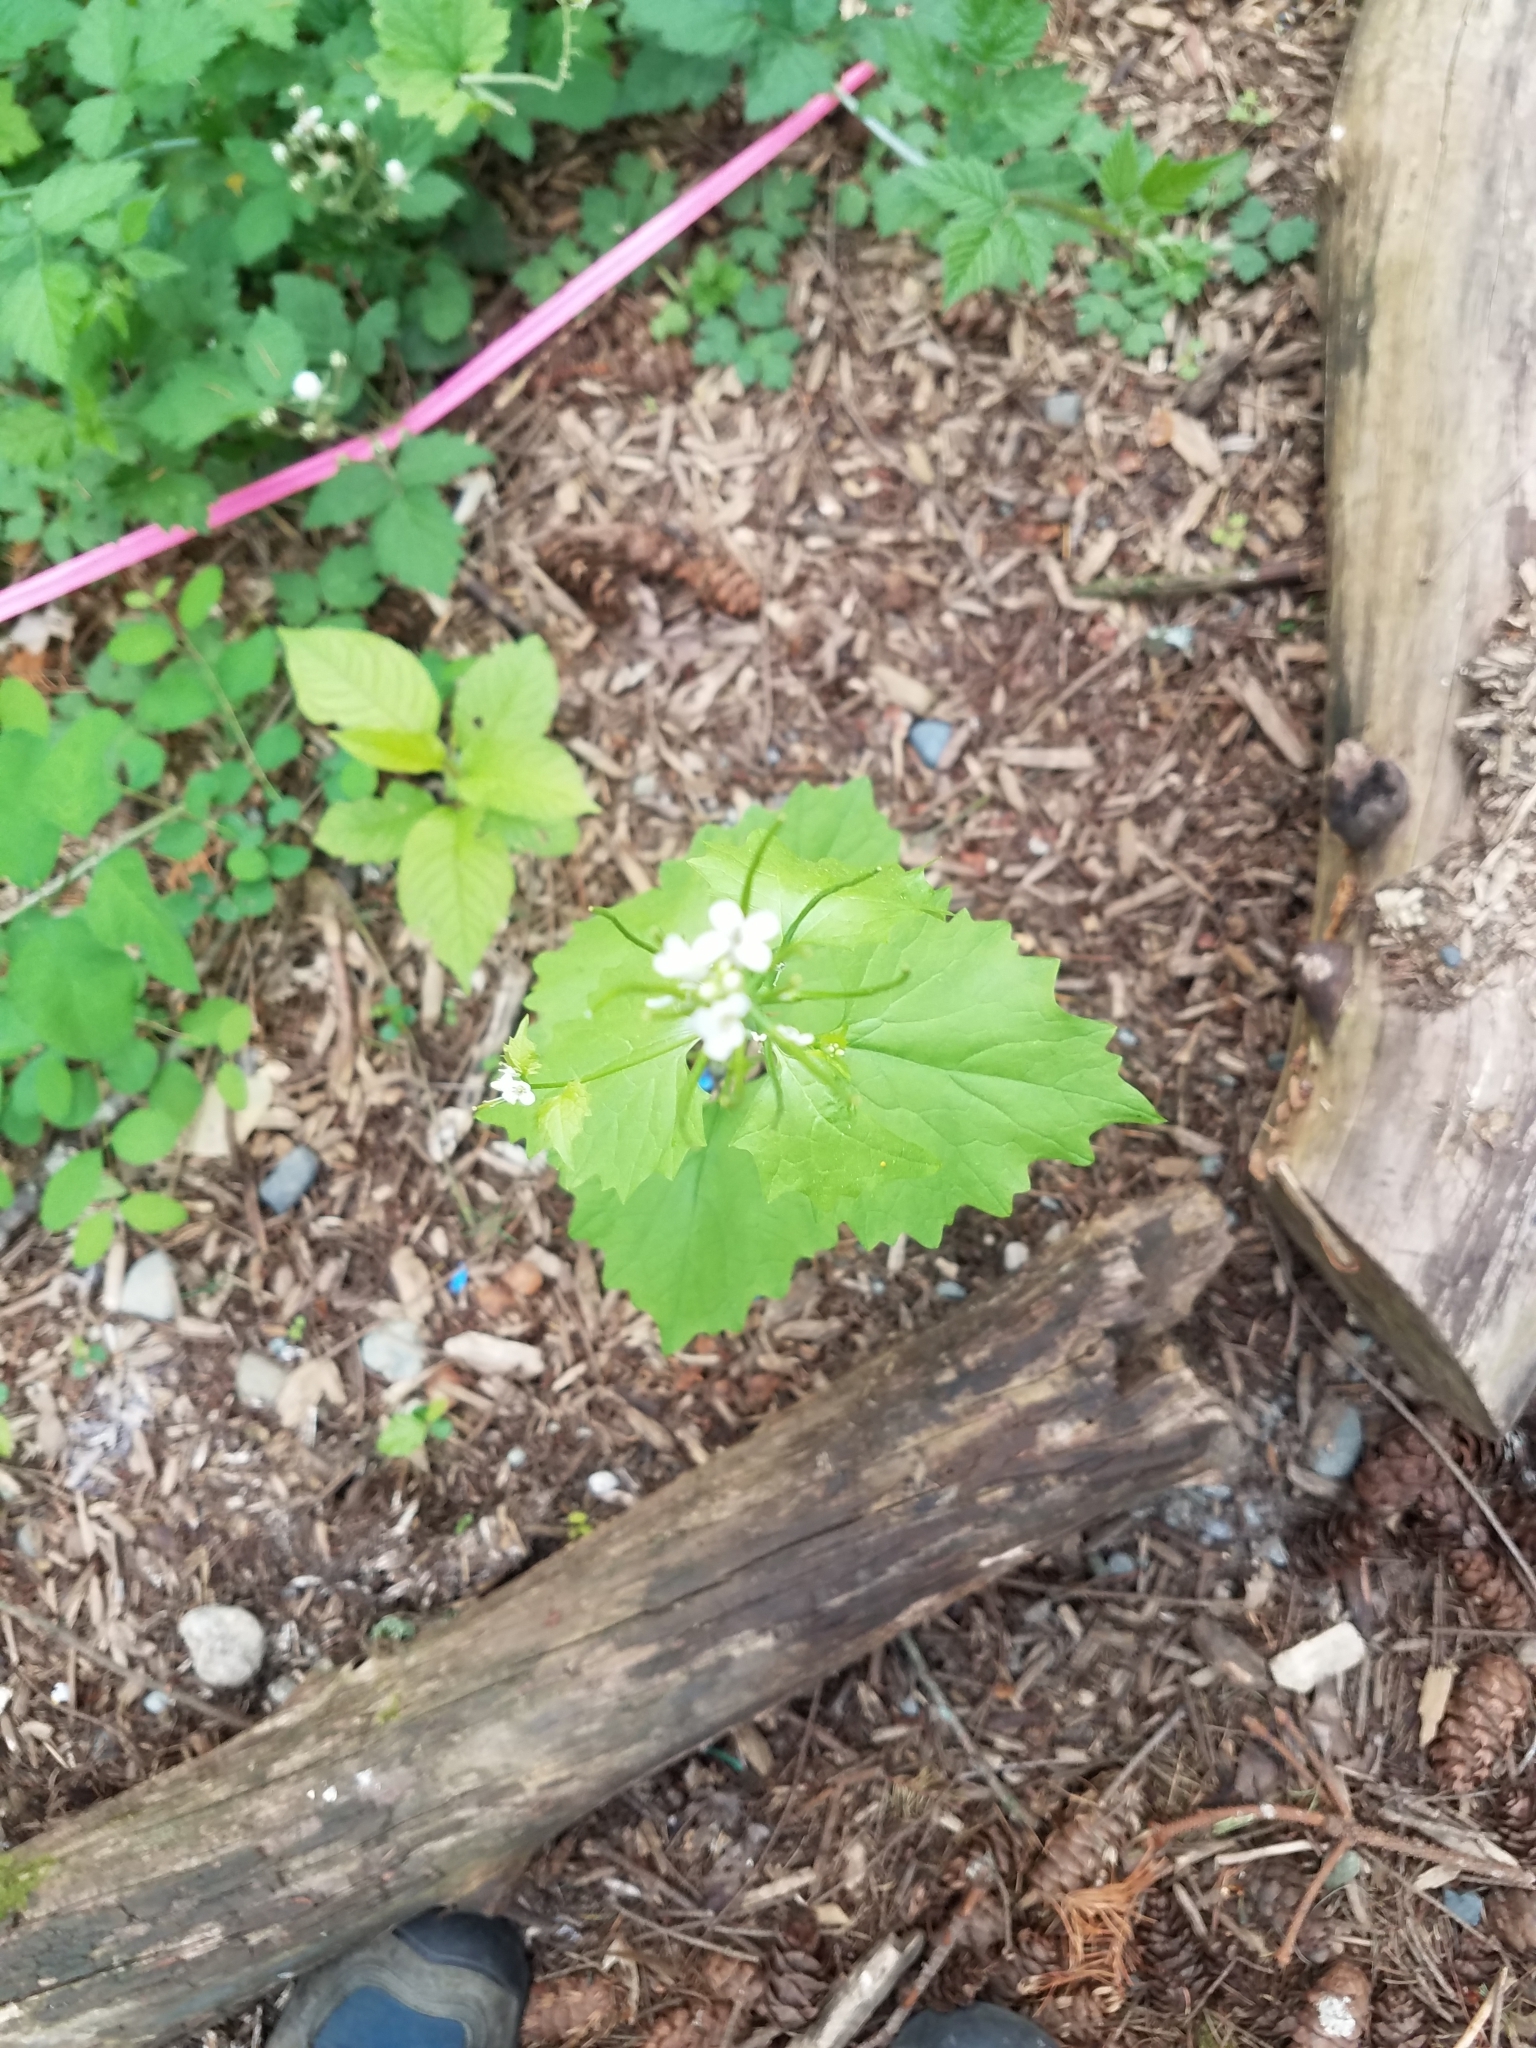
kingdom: Plantae
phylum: Tracheophyta
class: Magnoliopsida
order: Brassicales
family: Brassicaceae
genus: Alliaria
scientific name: Alliaria petiolata
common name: Garlic mustard
